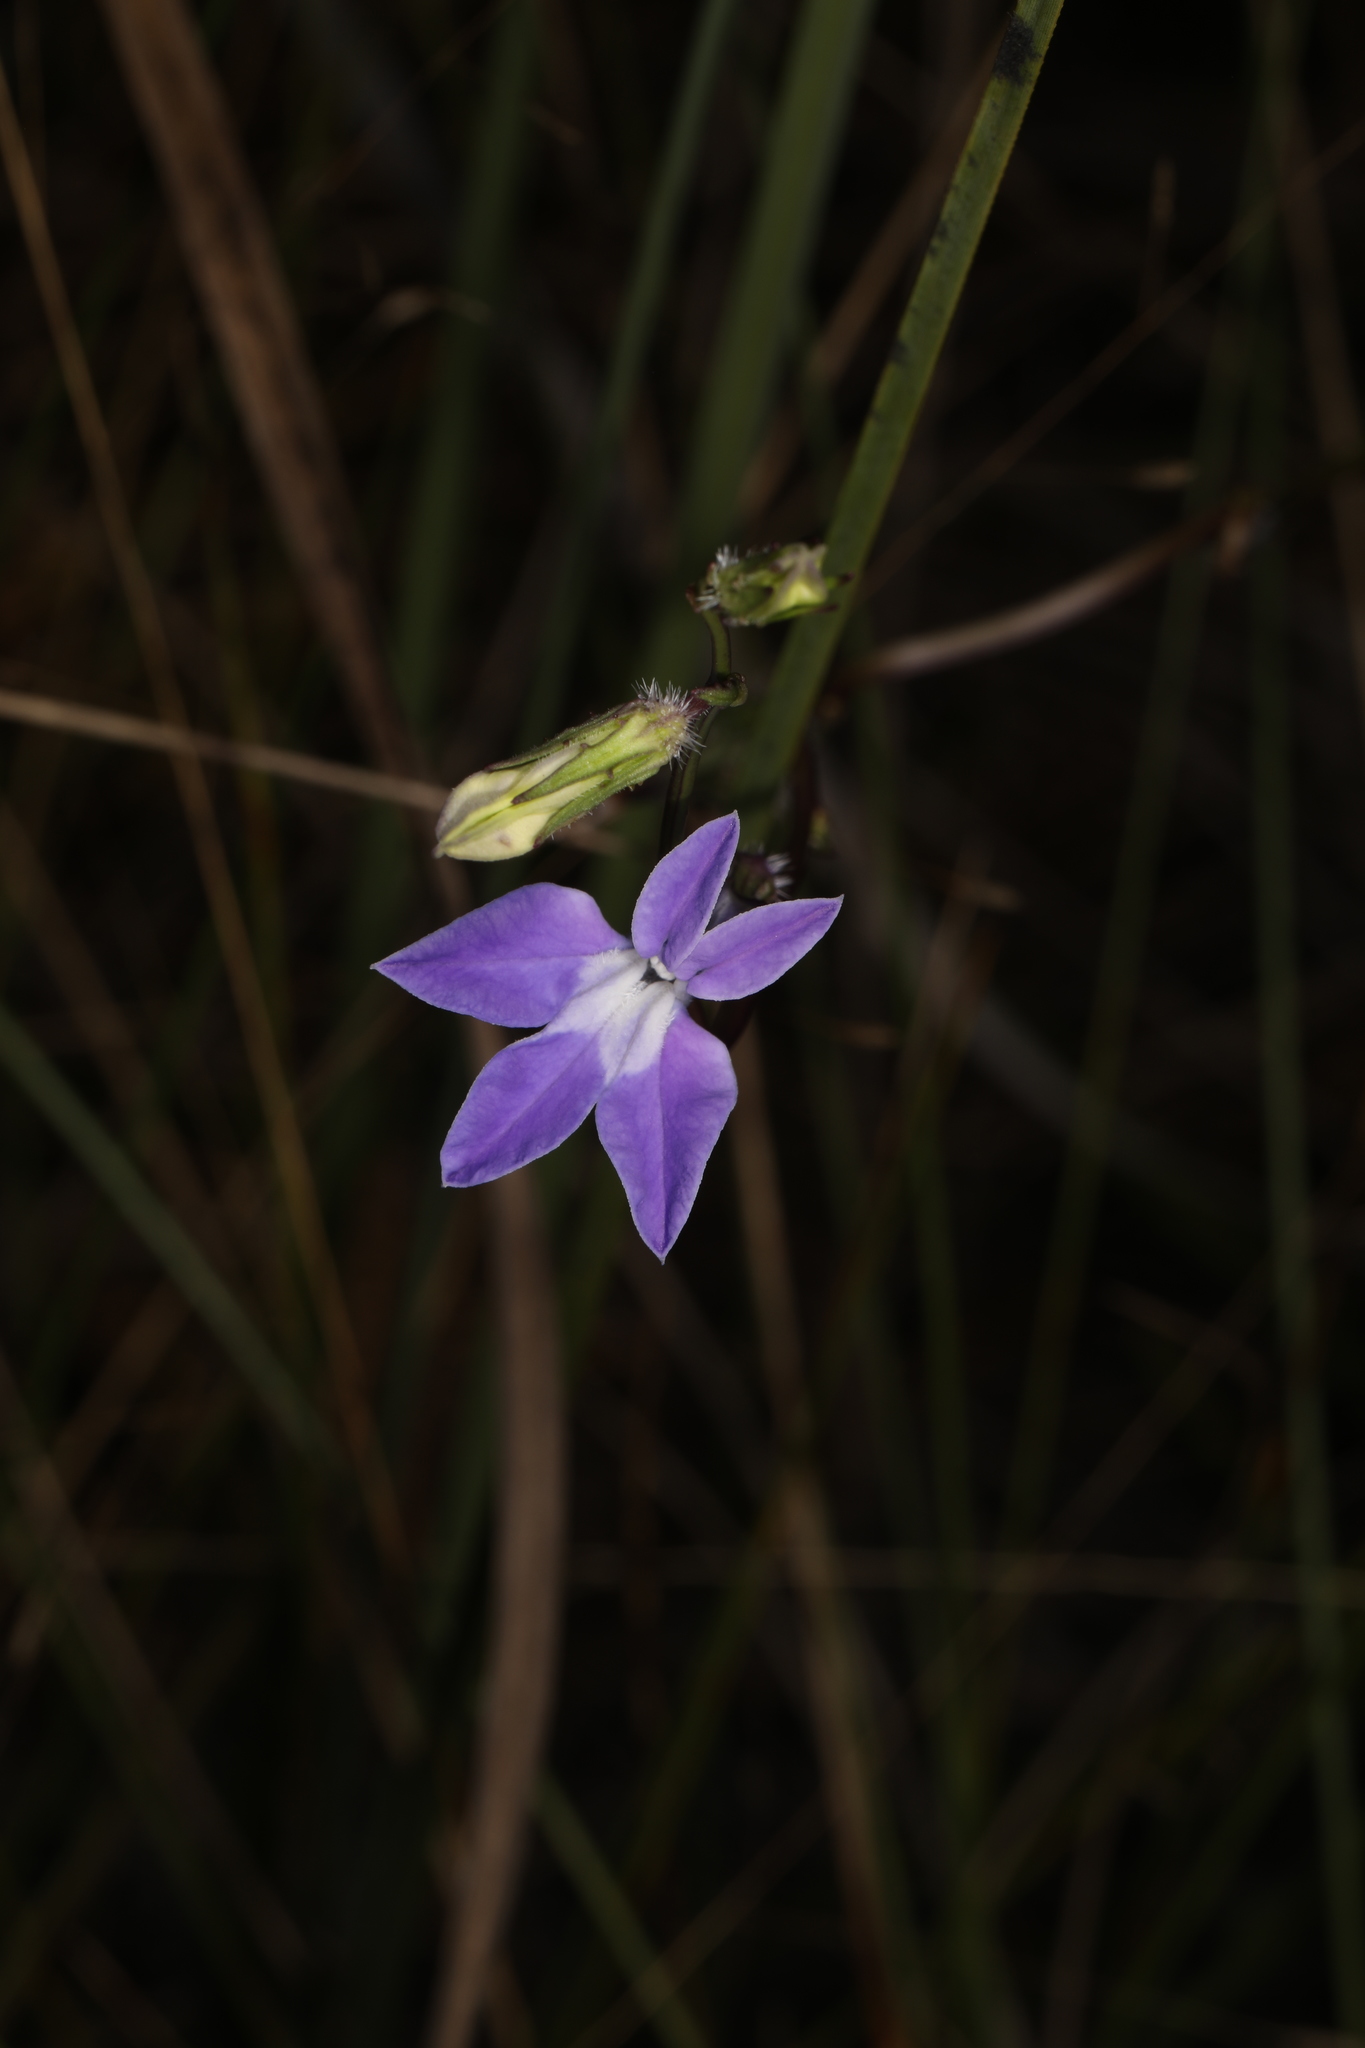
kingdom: Plantae
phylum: Tracheophyta
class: Magnoliopsida
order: Asterales
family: Campanulaceae
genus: Lobelia
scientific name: Lobelia glandulosa
